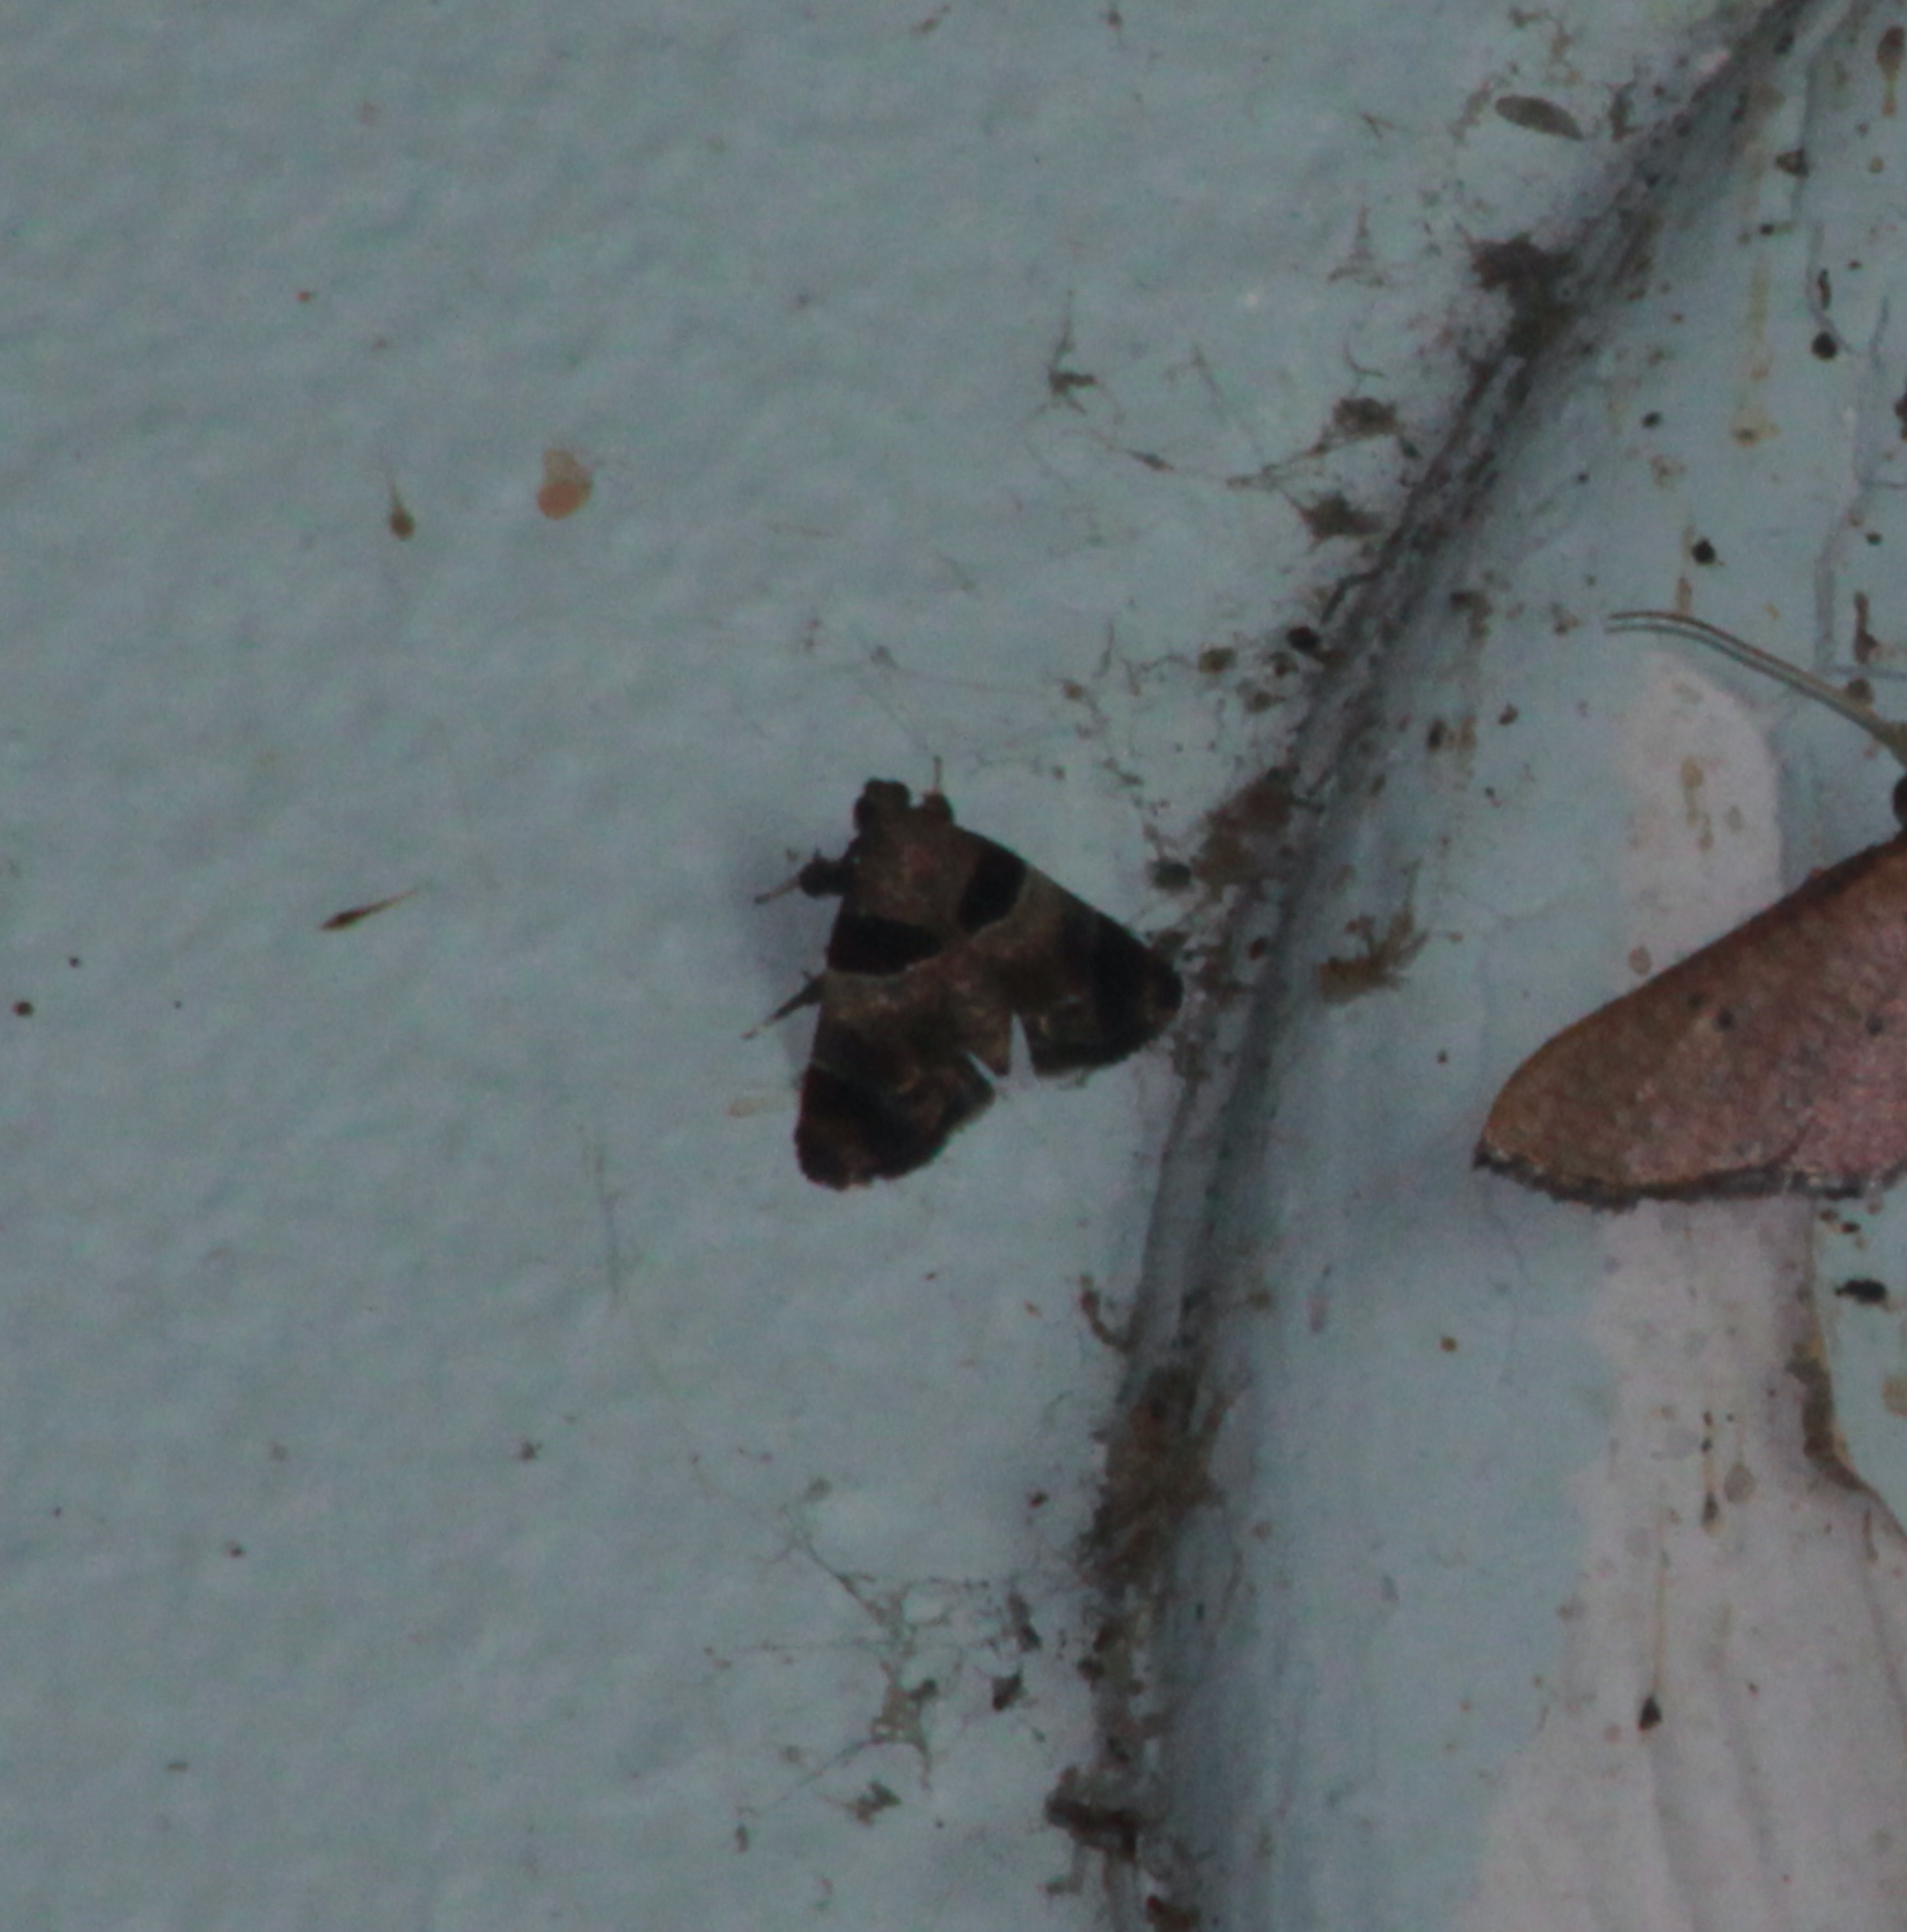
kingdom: Animalia
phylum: Arthropoda
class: Insecta
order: Lepidoptera
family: Pyralidae
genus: Tosale
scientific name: Tosale oviplagalis
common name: Dimorphic tosale moth
